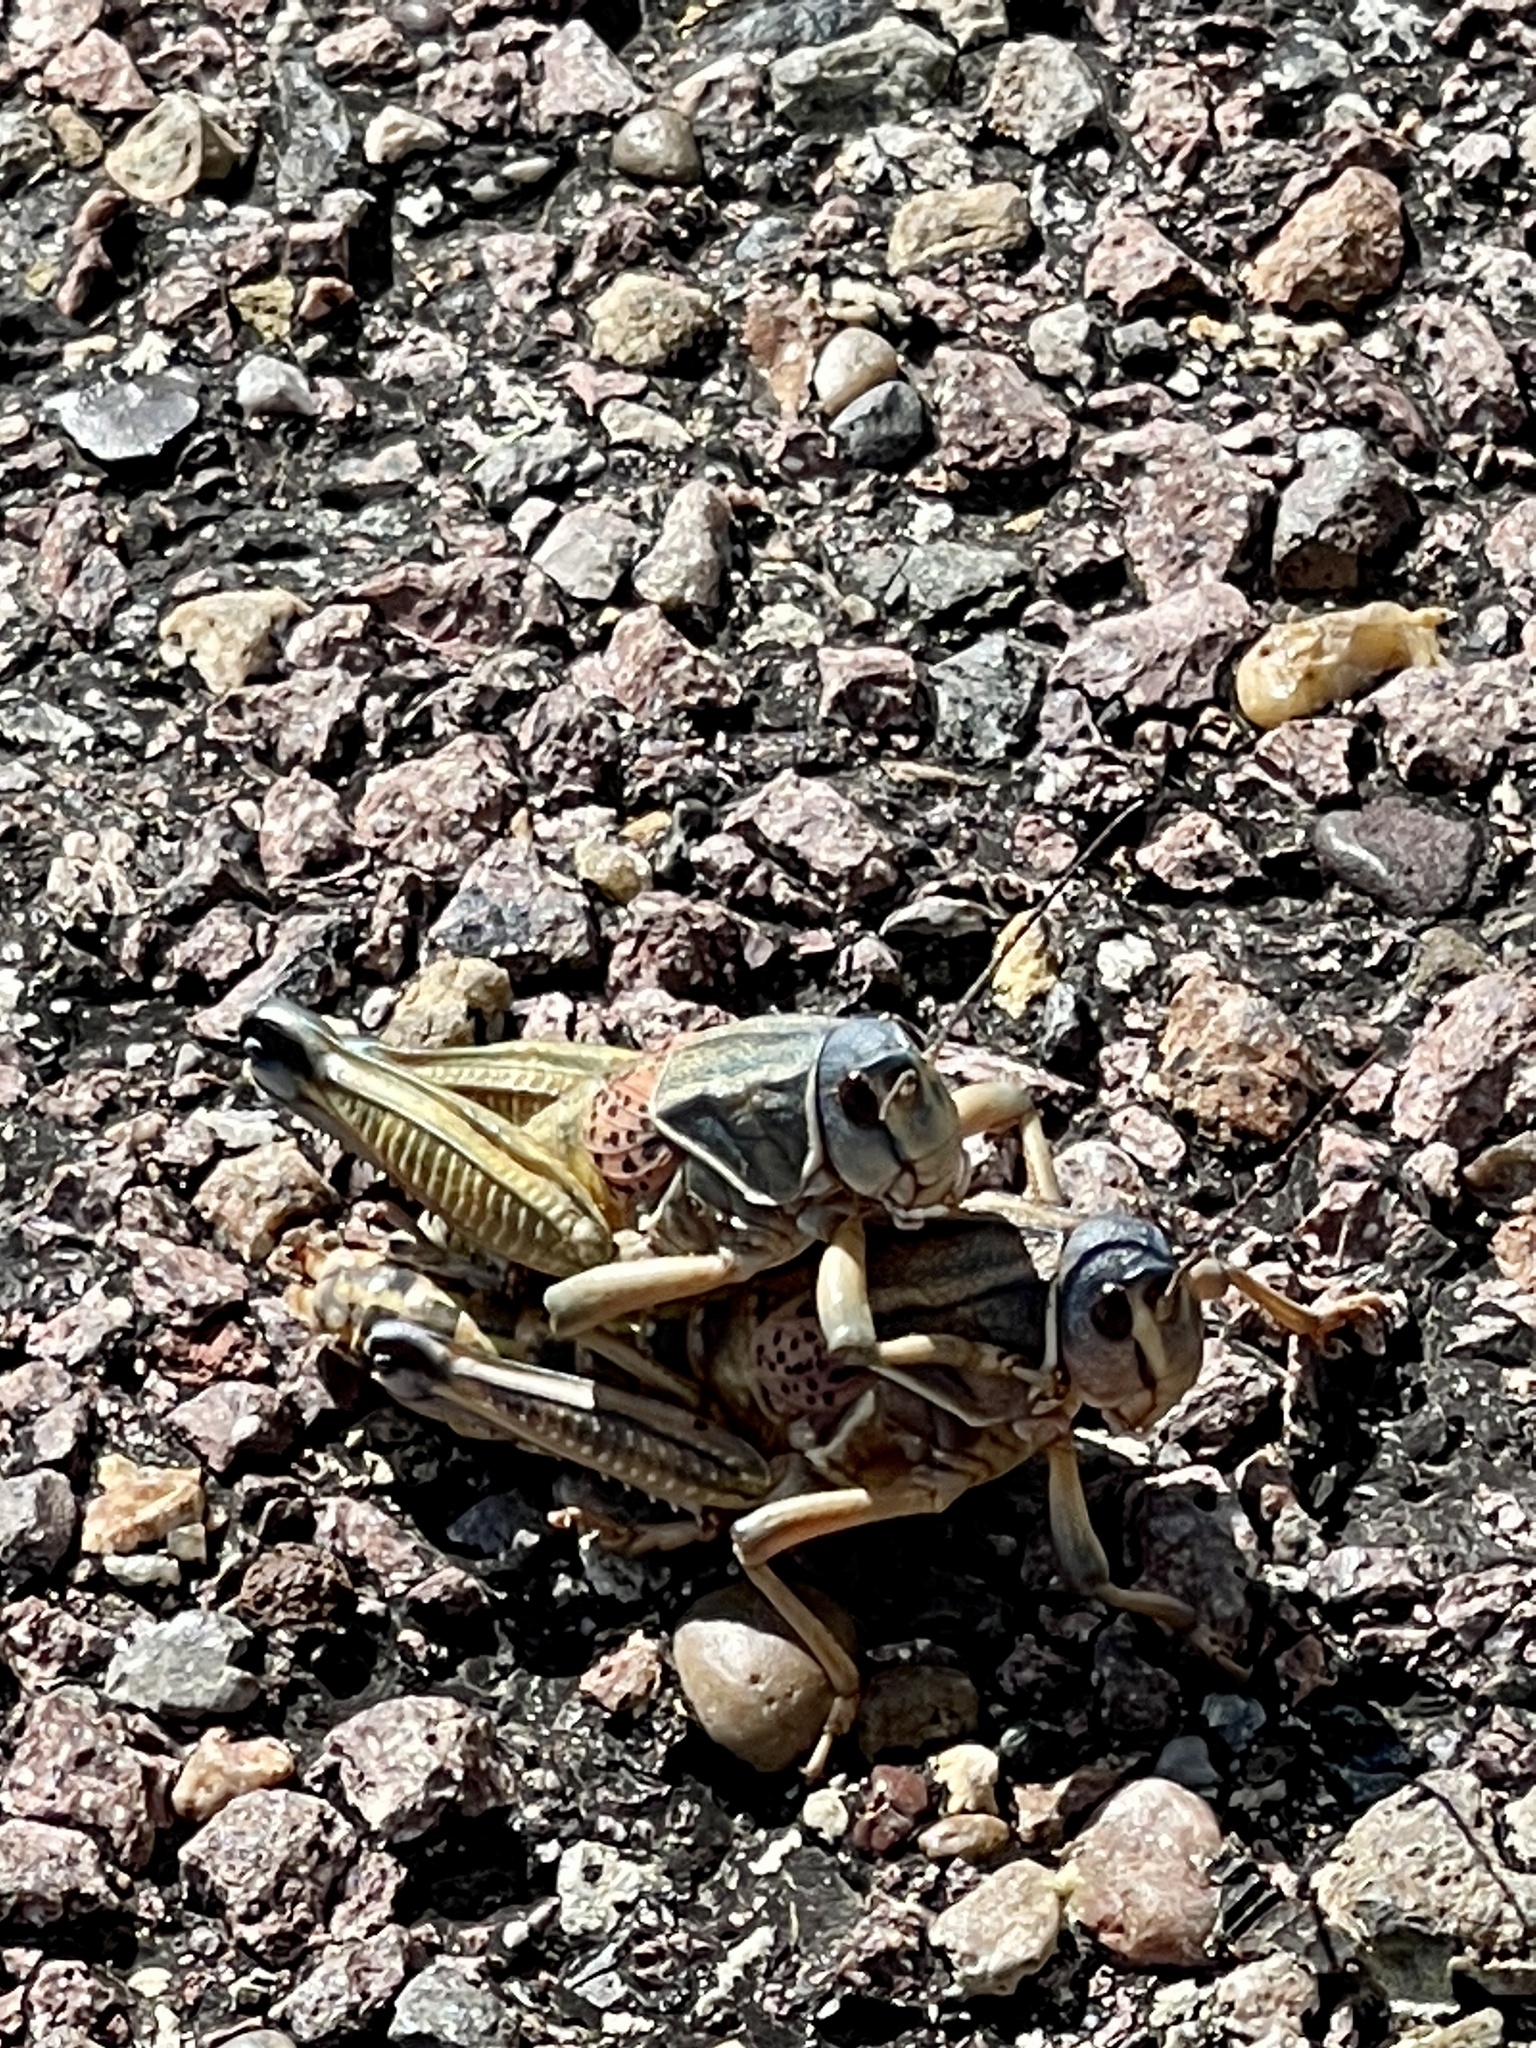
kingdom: Animalia
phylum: Arthropoda
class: Insecta
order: Orthoptera
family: Romaleidae
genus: Brachystola
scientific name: Brachystola magna
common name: Plains lubber grasshopper
